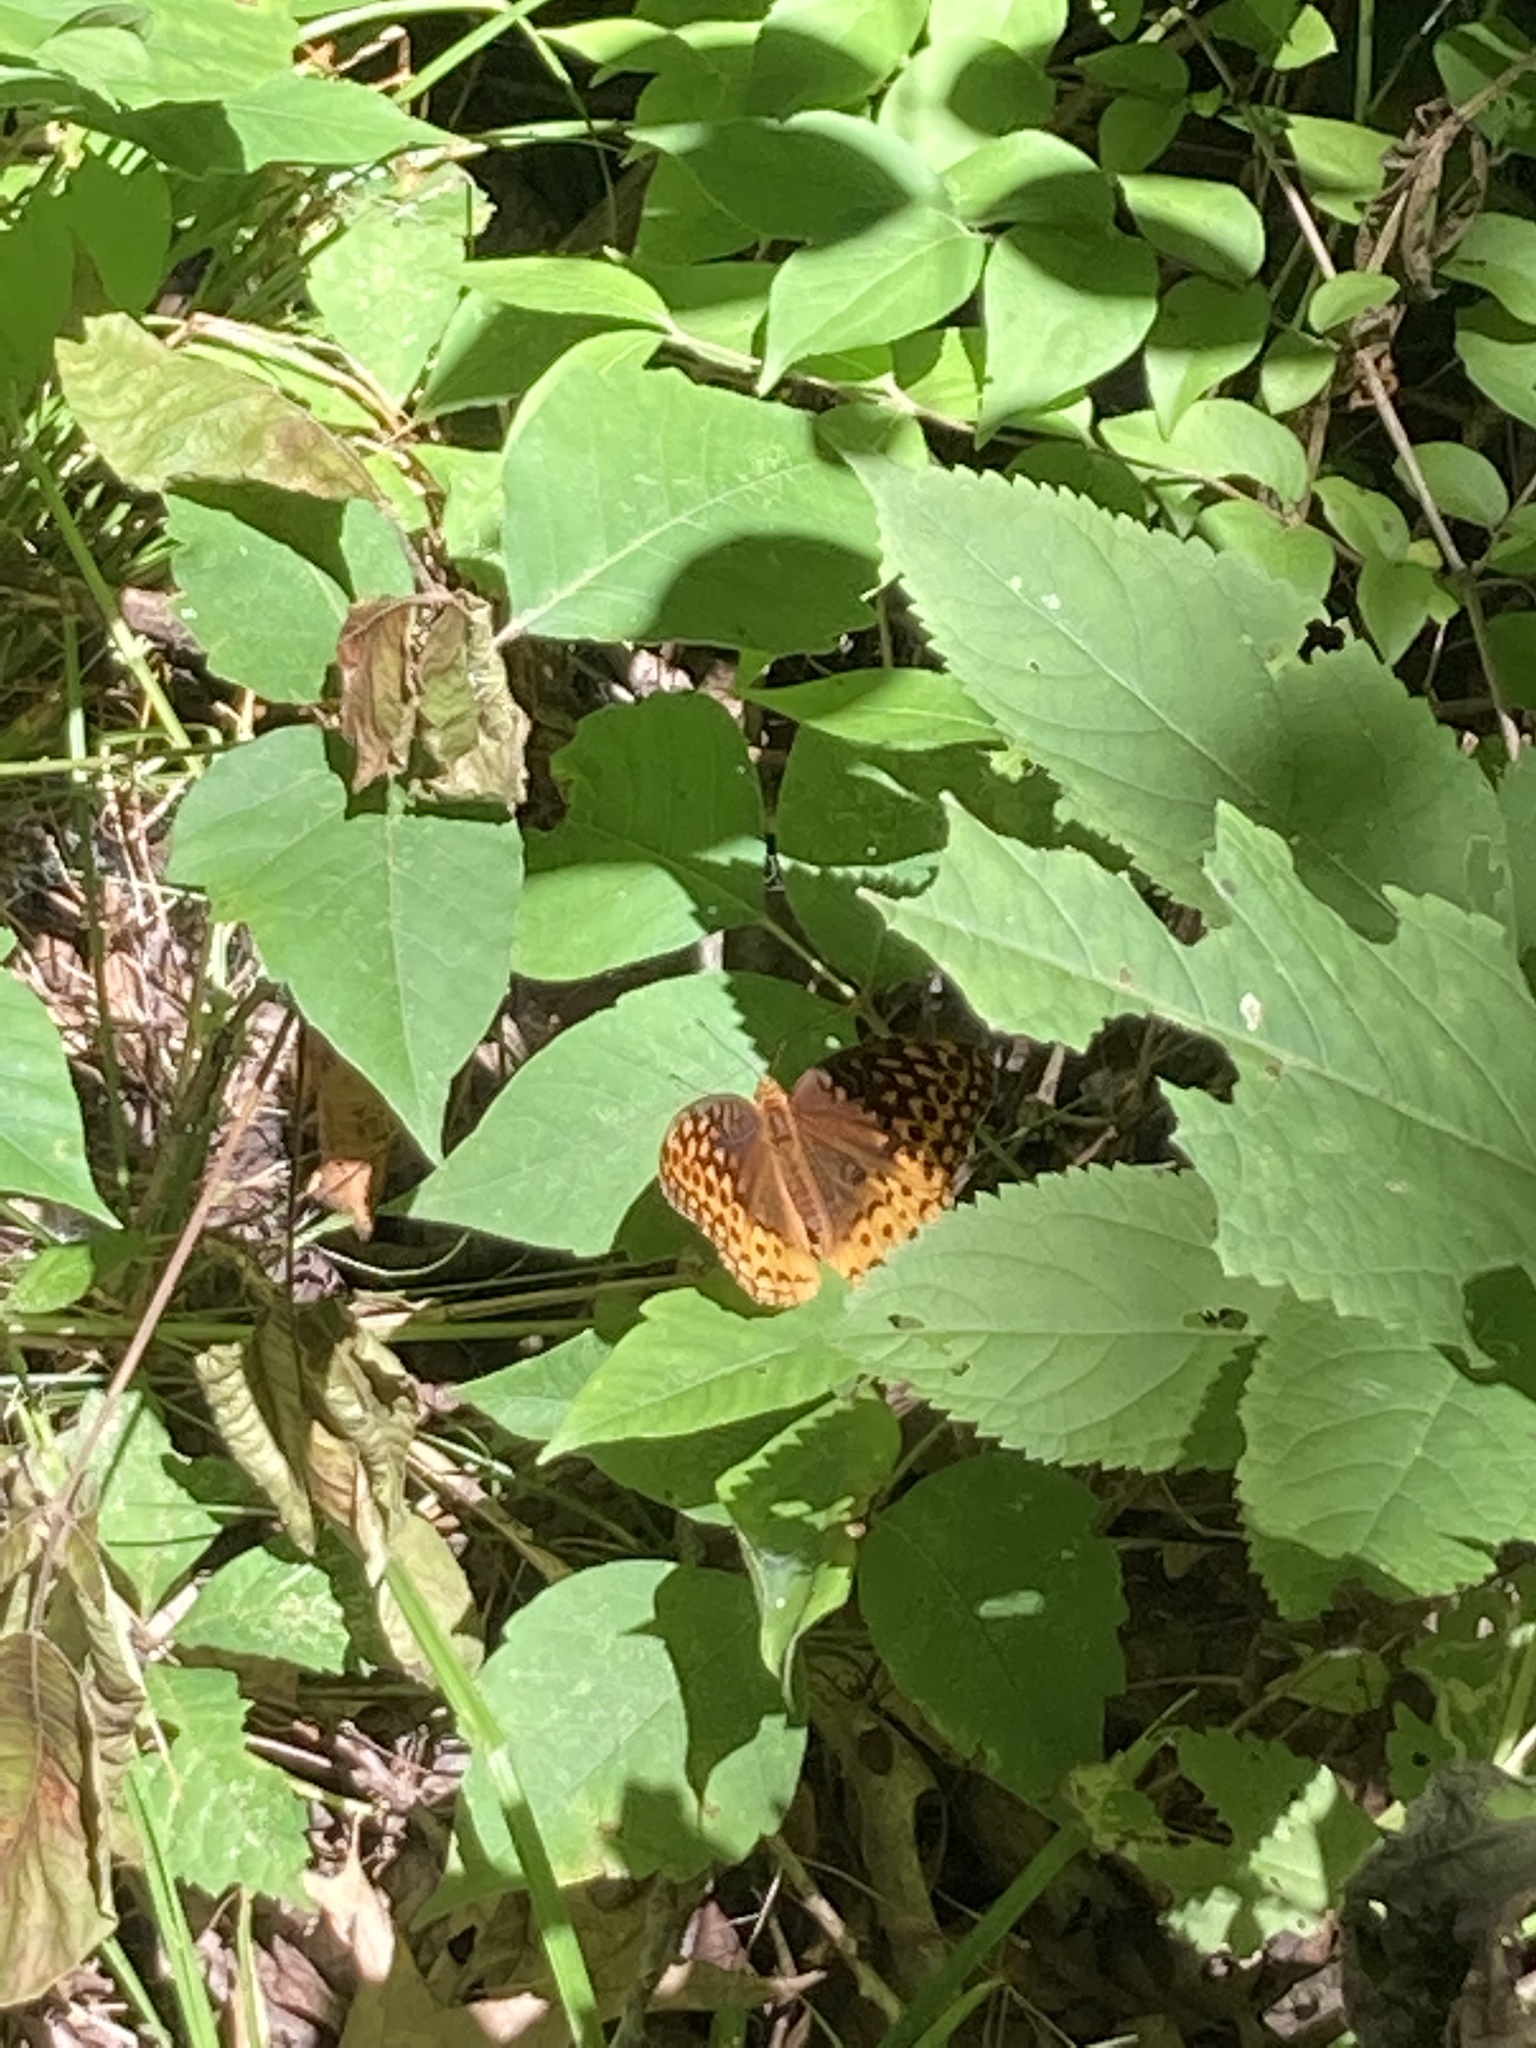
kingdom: Animalia
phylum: Arthropoda
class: Insecta
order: Lepidoptera
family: Nymphalidae
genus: Speyeria
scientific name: Speyeria cybele
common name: Great spangled fritillary
